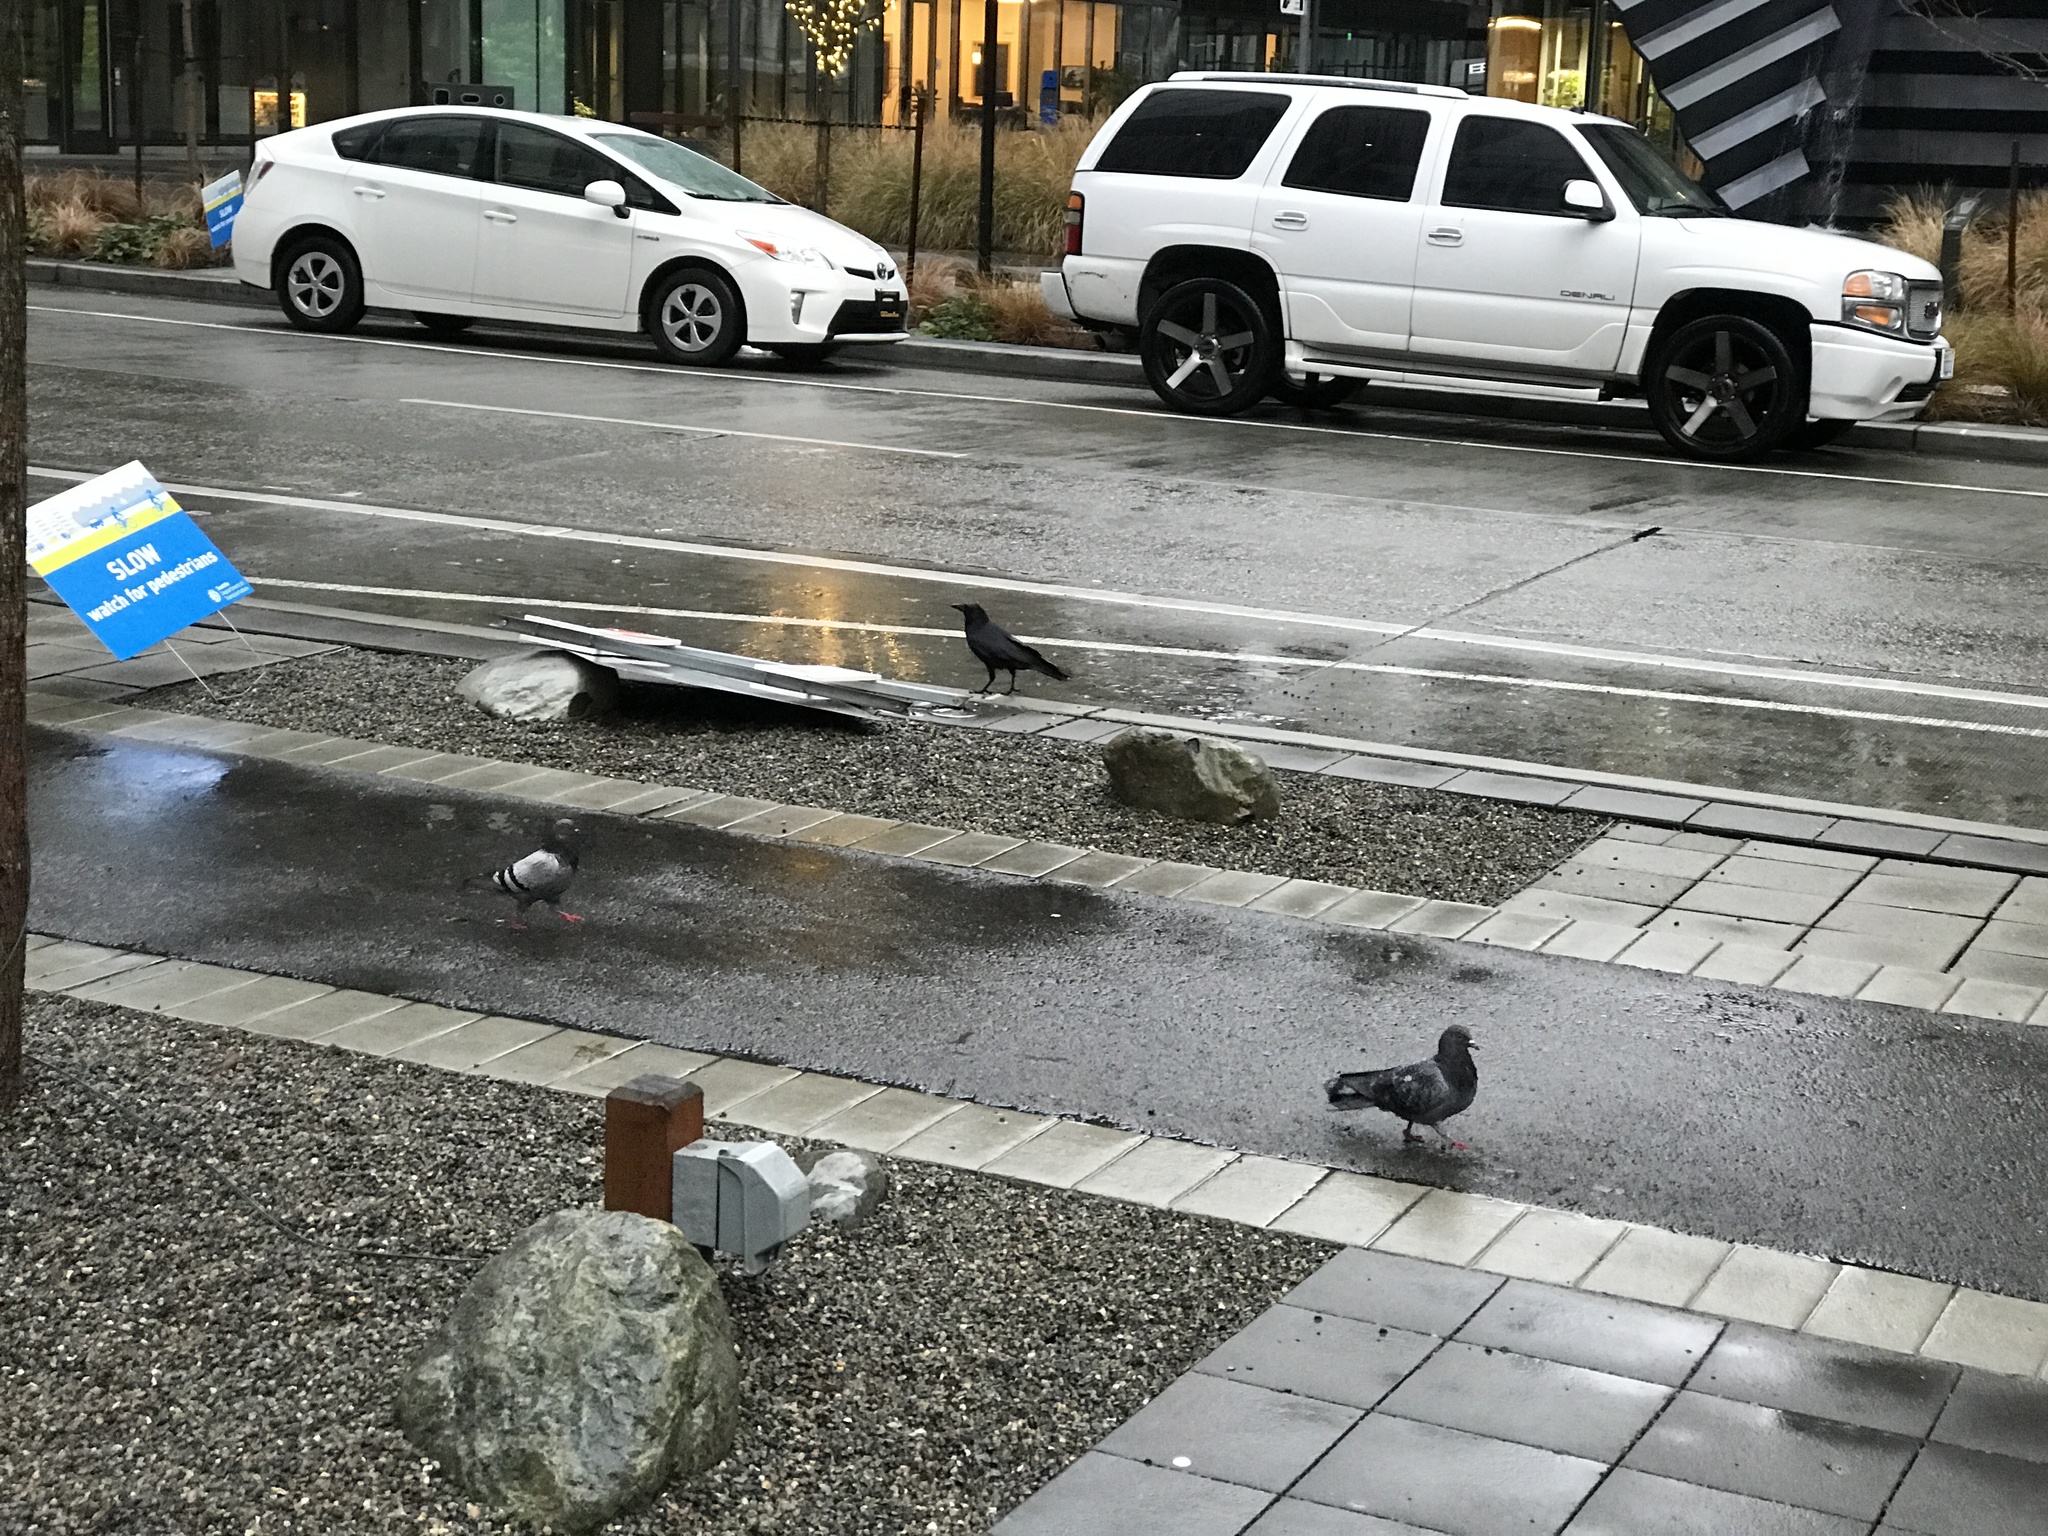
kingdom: Animalia
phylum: Chordata
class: Aves
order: Passeriformes
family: Corvidae
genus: Corvus
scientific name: Corvus brachyrhynchos
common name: American crow
